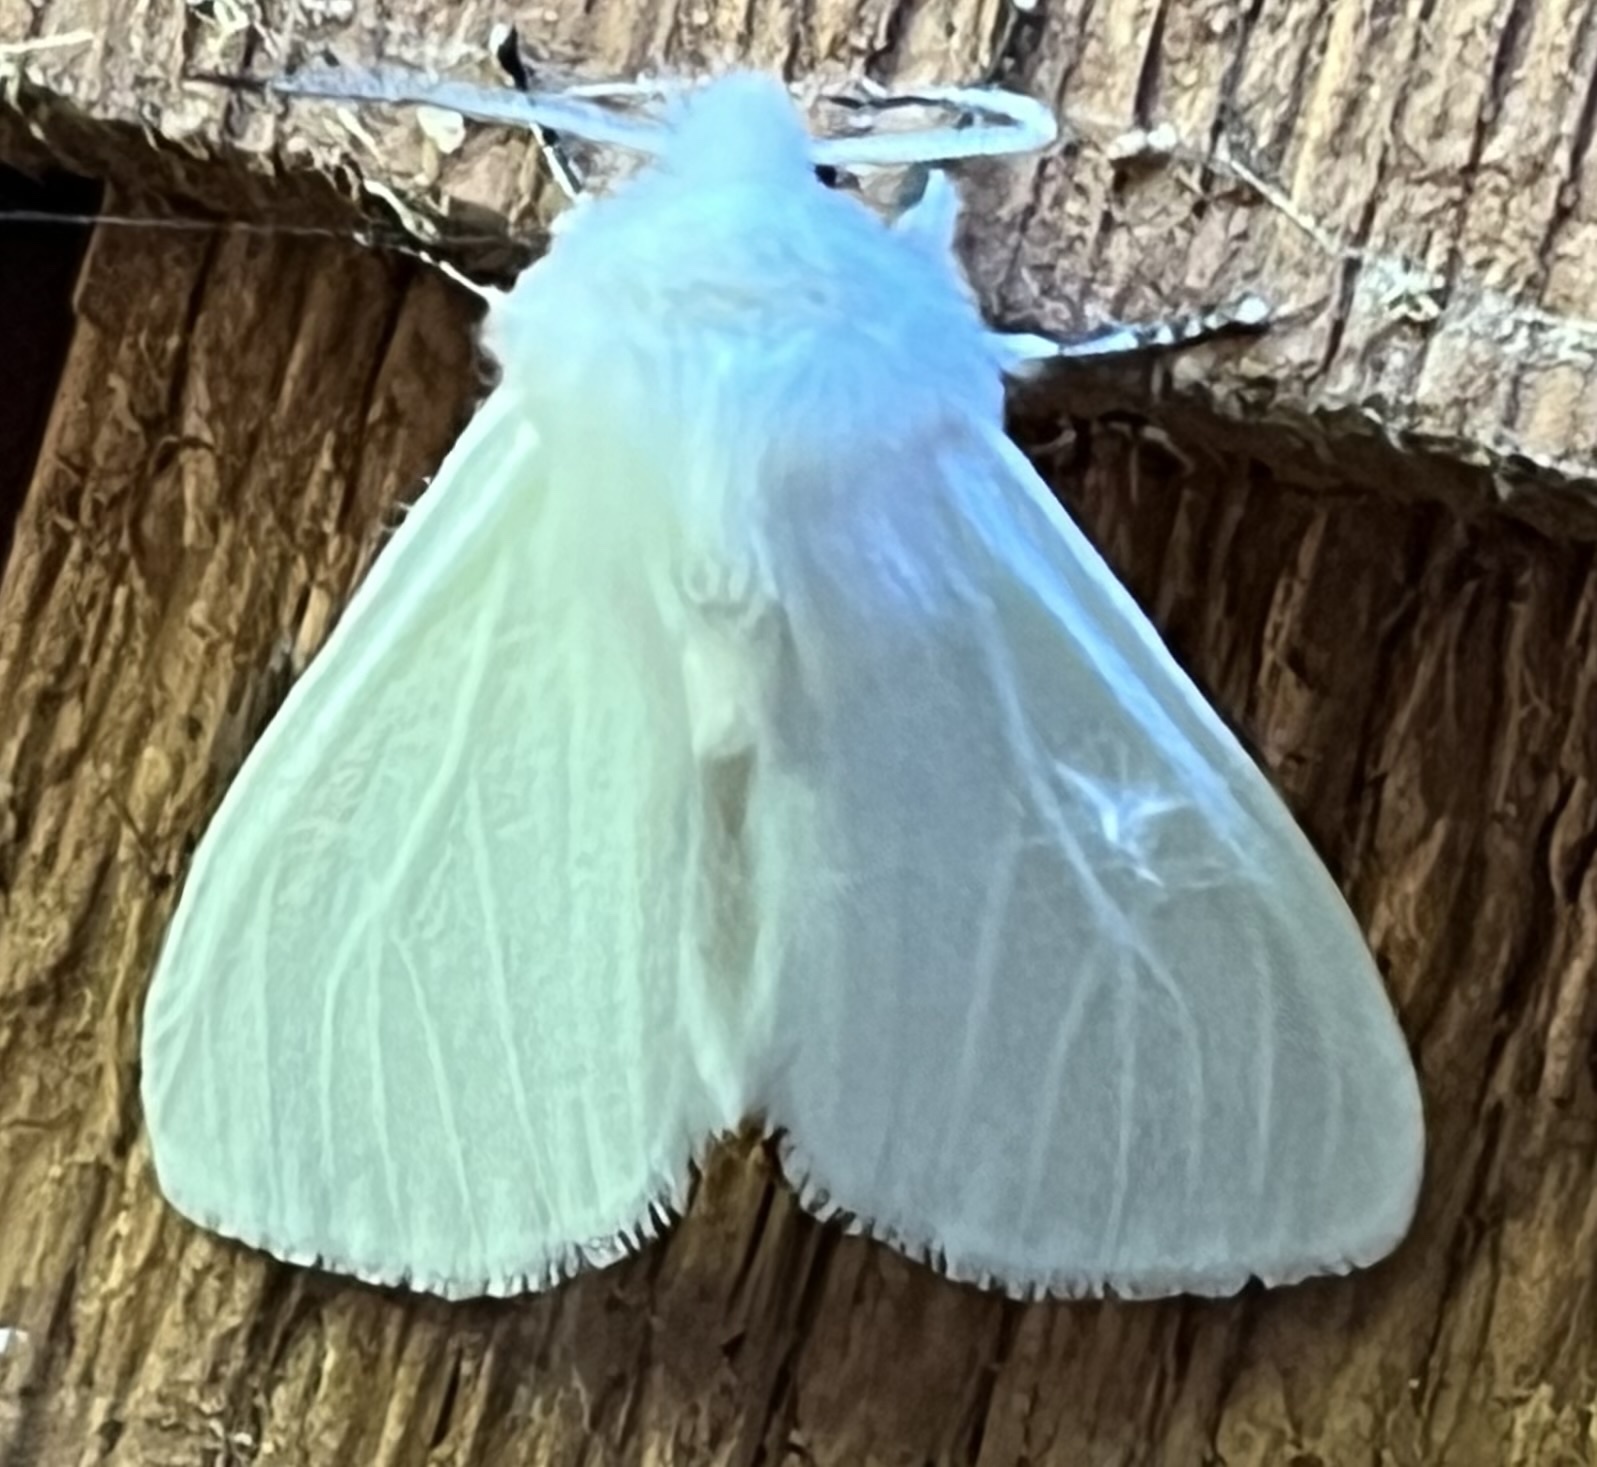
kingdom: Animalia
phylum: Arthropoda
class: Insecta
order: Lepidoptera
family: Erebidae
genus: Hyphantria
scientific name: Hyphantria cunea
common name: American white moth
